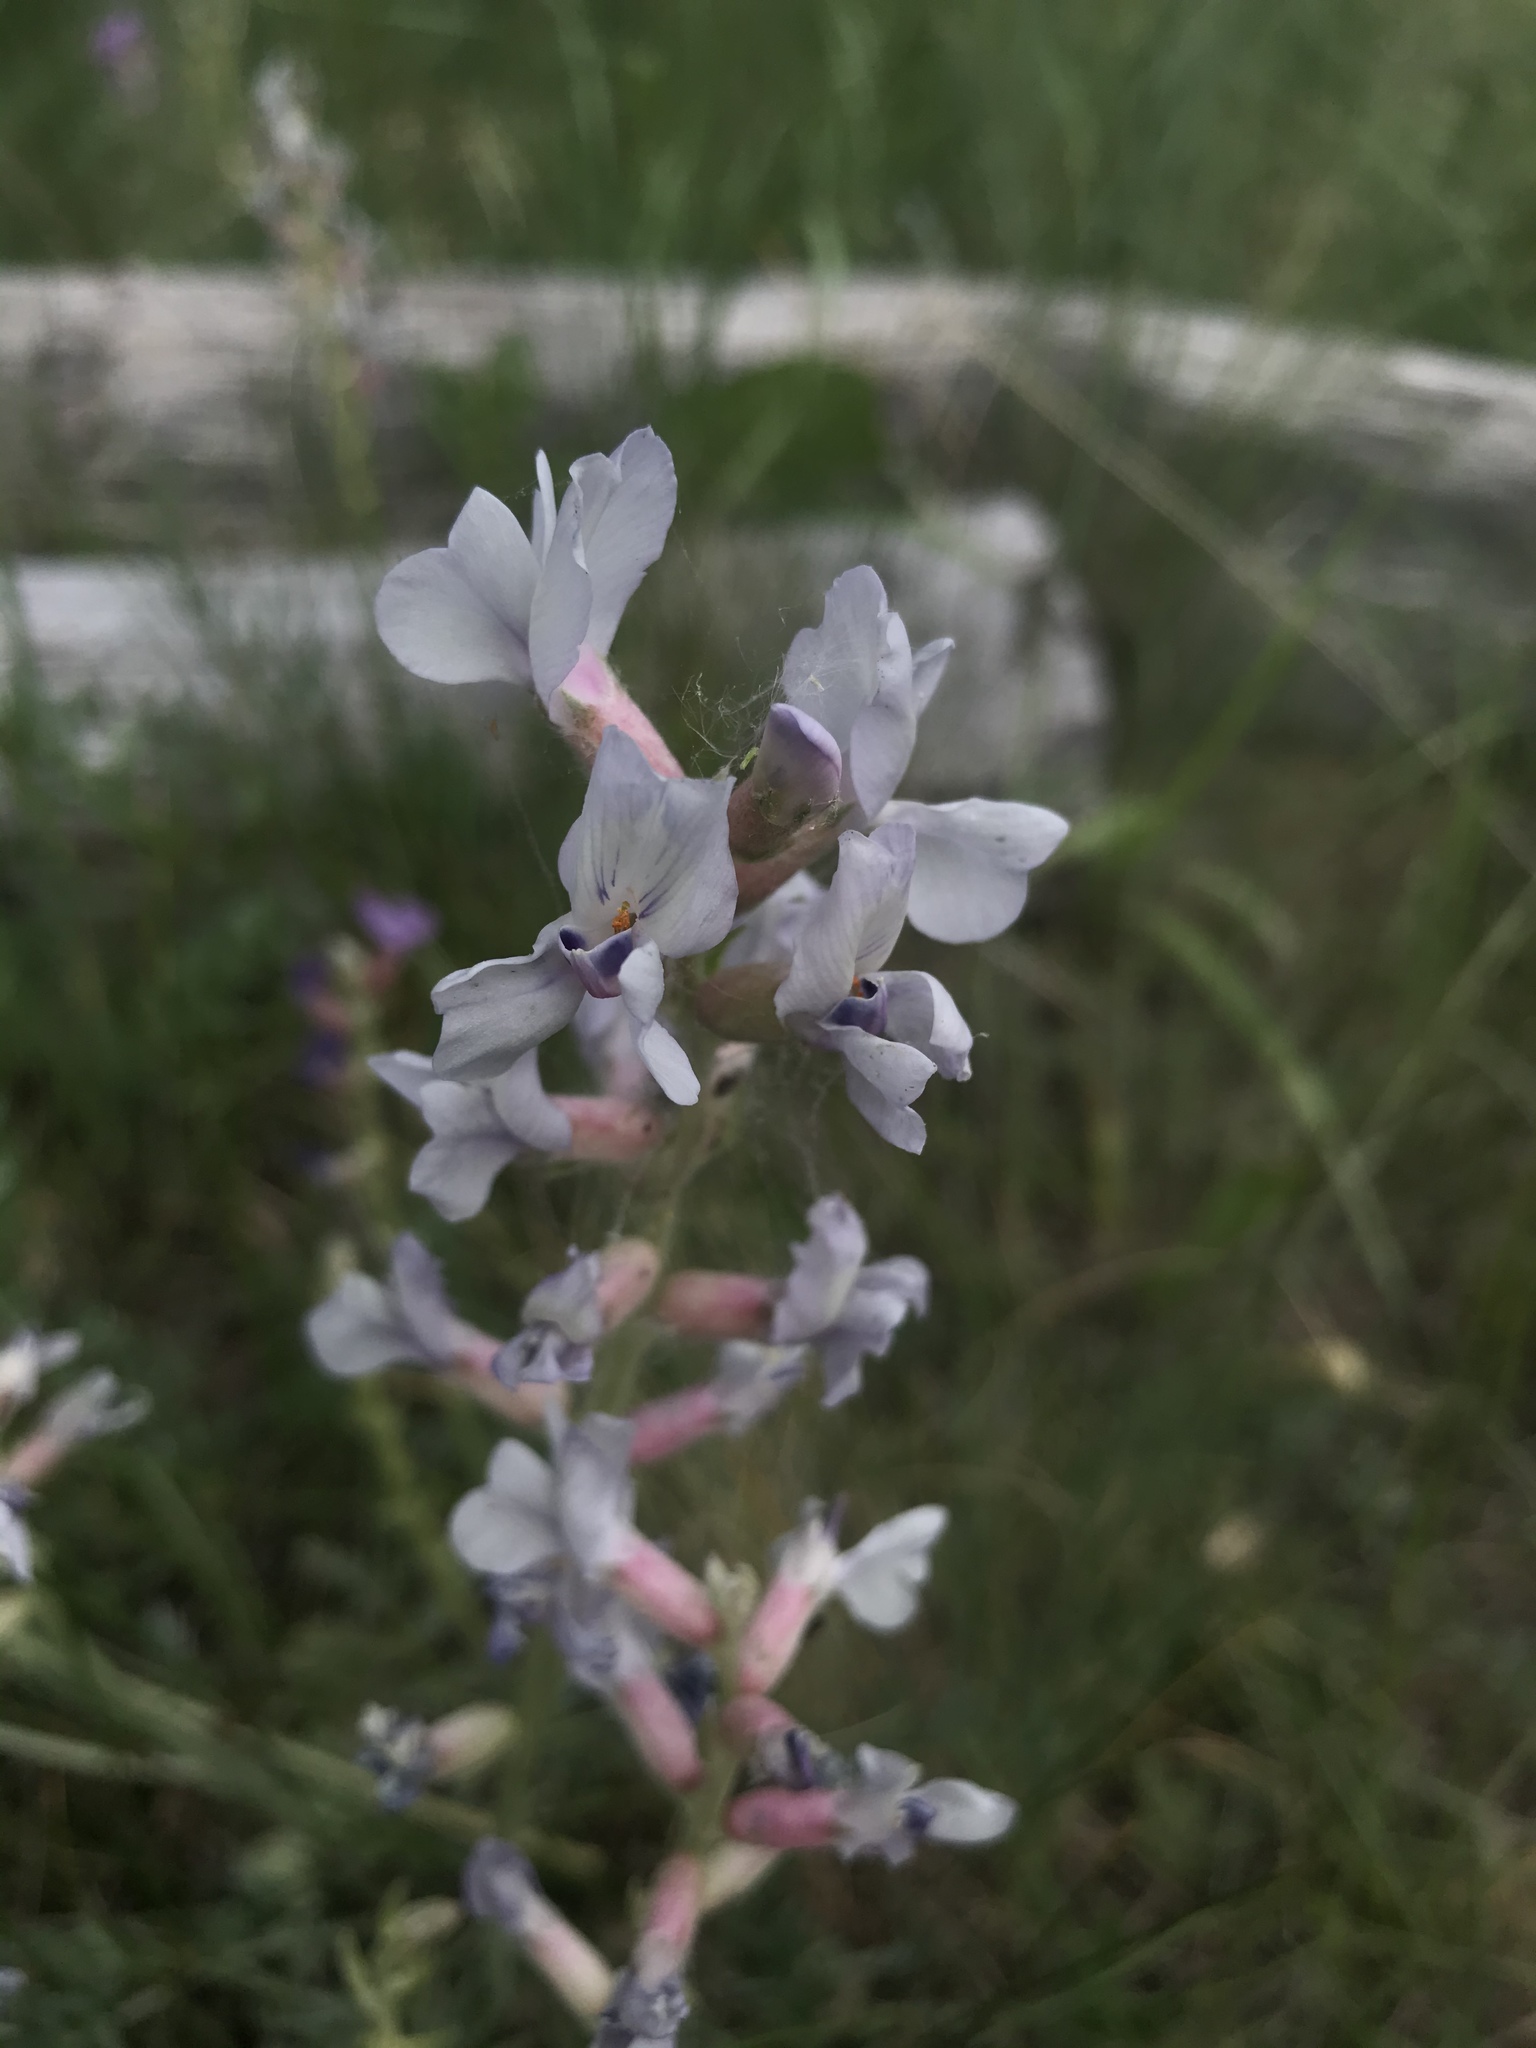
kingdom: Plantae
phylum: Tracheophyta
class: Magnoliopsida
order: Fabales
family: Fabaceae
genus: Oxytropis
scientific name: Oxytropis sericea
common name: Silky locoweed
